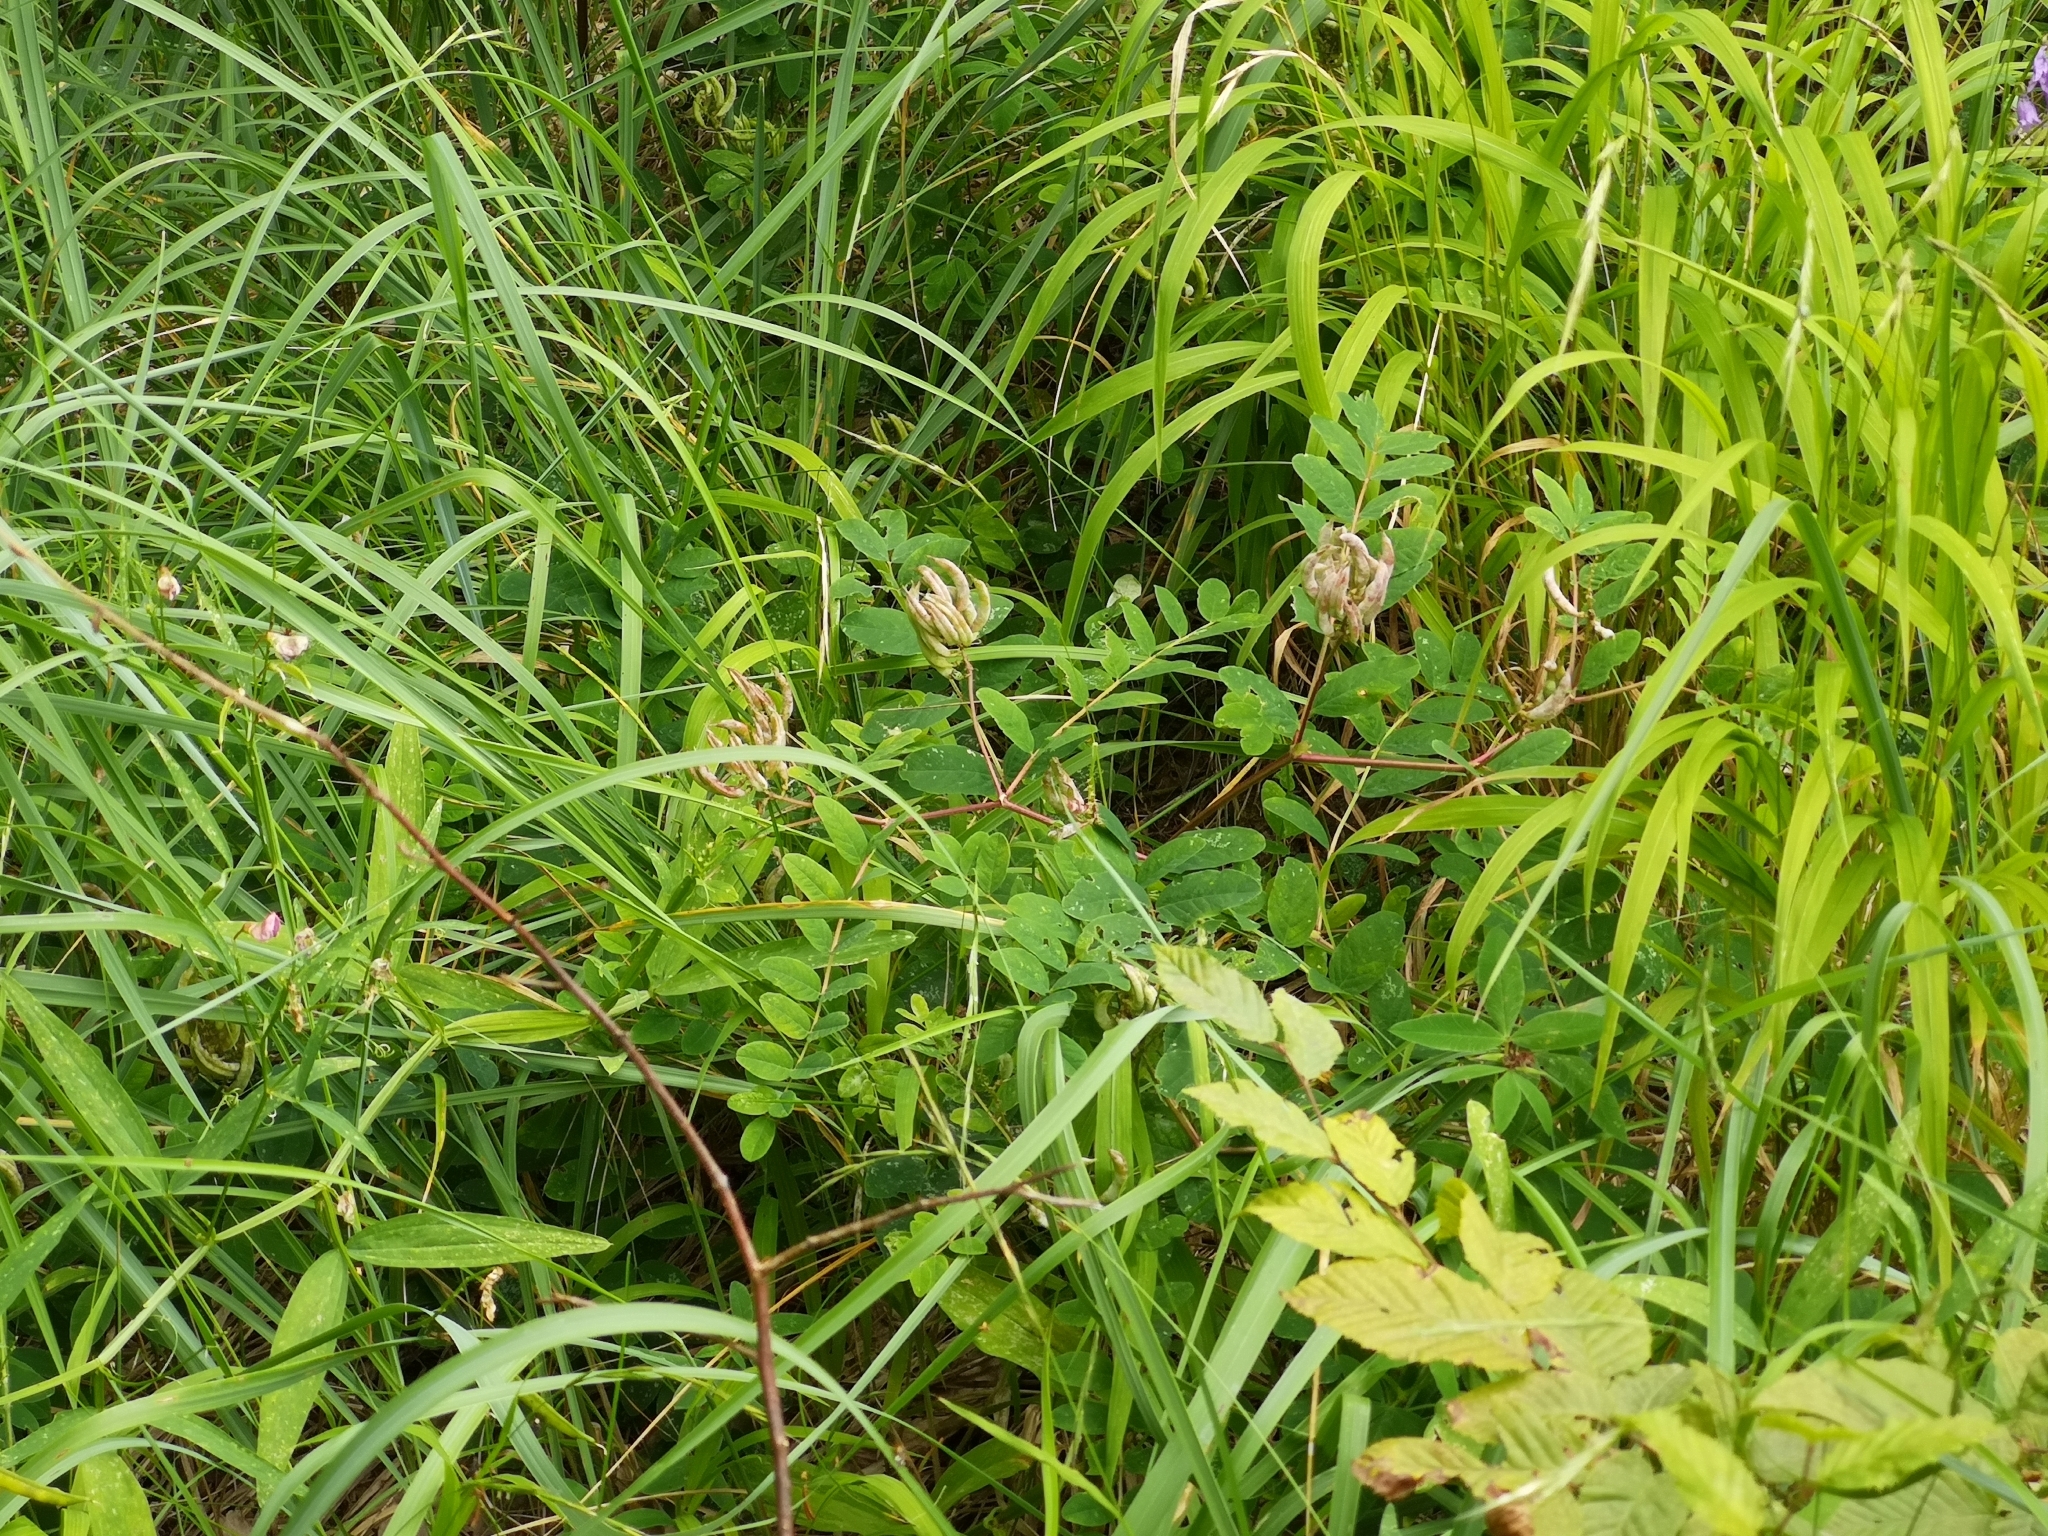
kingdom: Plantae
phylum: Tracheophyta
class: Magnoliopsida
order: Fabales
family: Fabaceae
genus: Astragalus
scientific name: Astragalus glycyphyllos
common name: Wild liquorice
